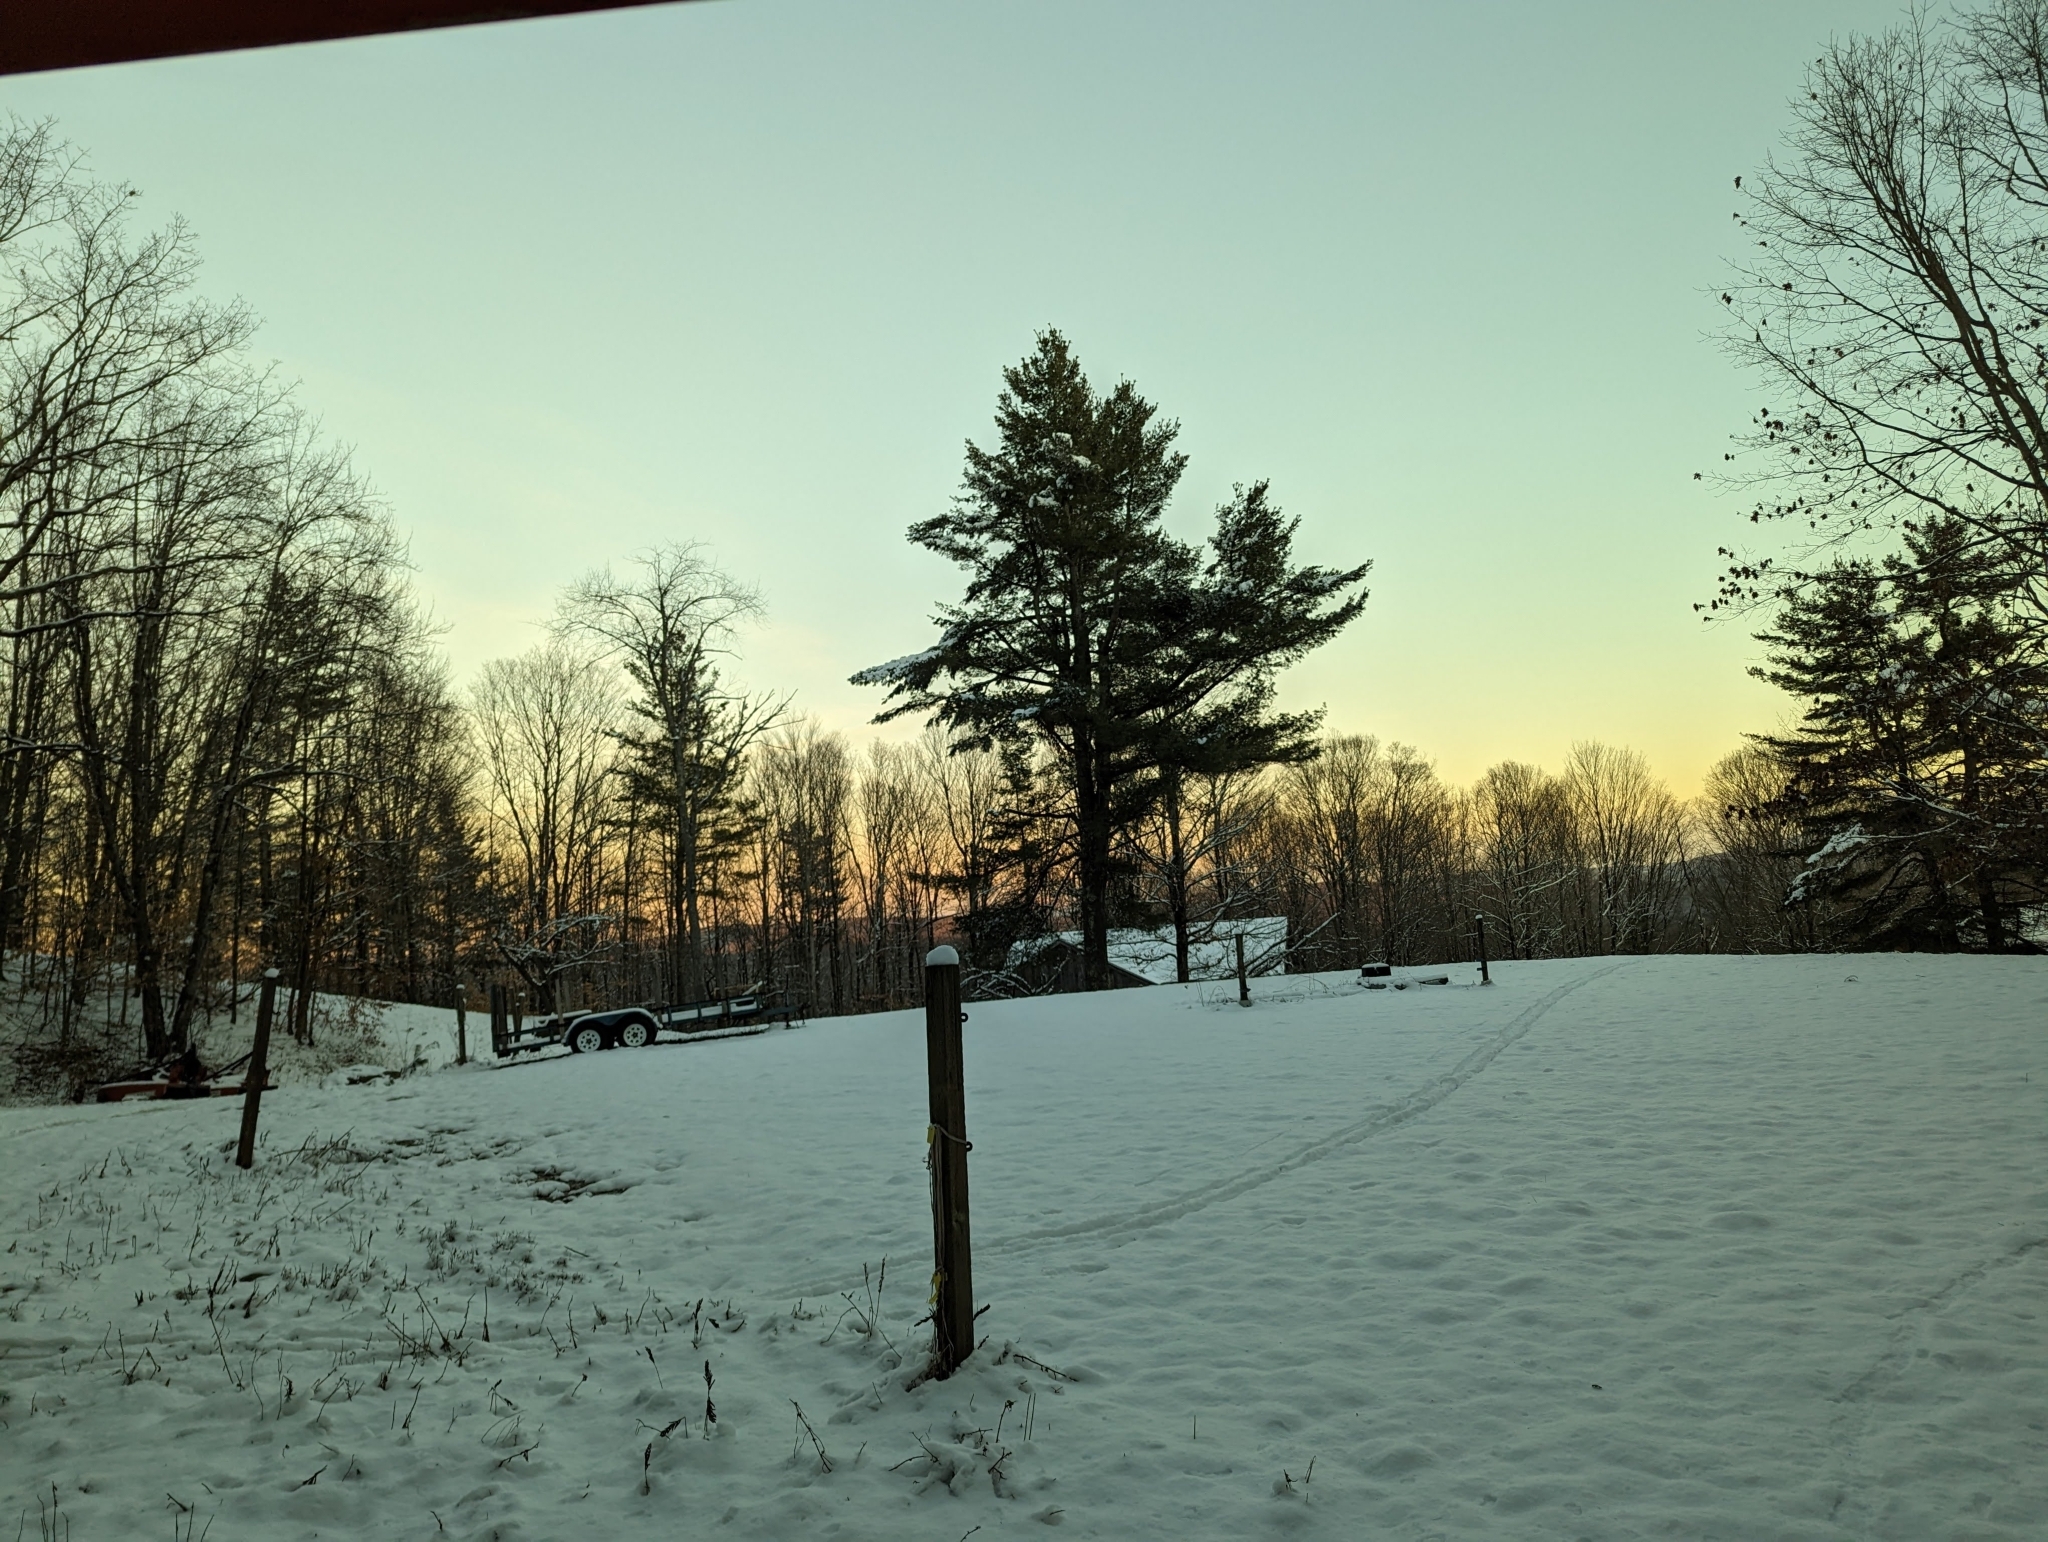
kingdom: Plantae
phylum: Tracheophyta
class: Pinopsida
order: Pinales
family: Pinaceae
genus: Pinus
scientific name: Pinus strobus
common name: Weymouth pine
